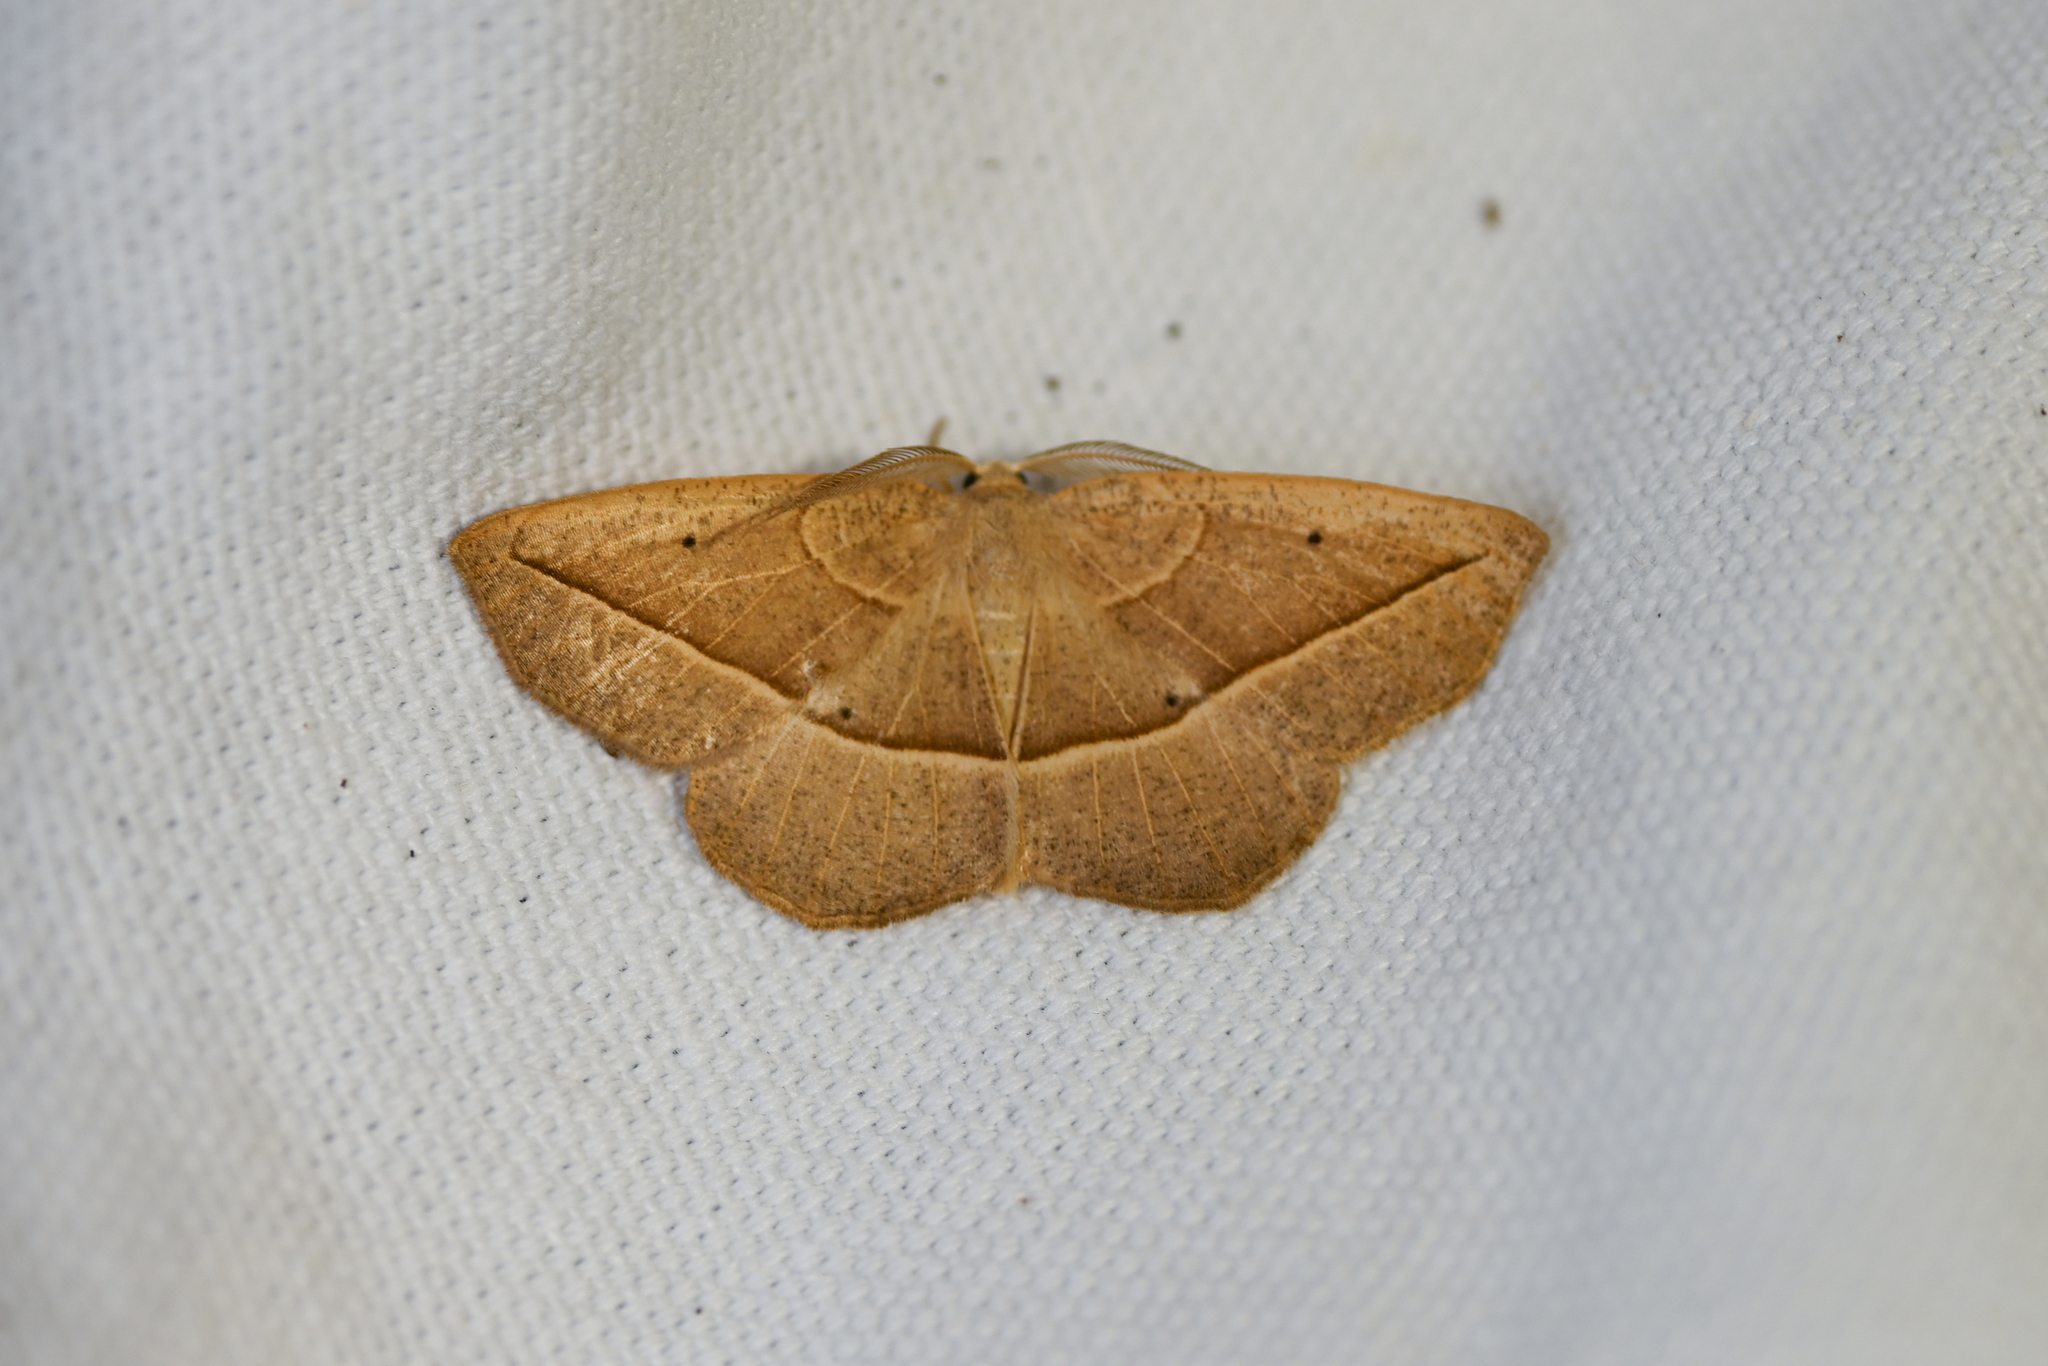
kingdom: Animalia
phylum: Arthropoda
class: Insecta
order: Lepidoptera
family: Geometridae
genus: Eusarca
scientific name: Eusarca confusaria
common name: Confused eusarca
